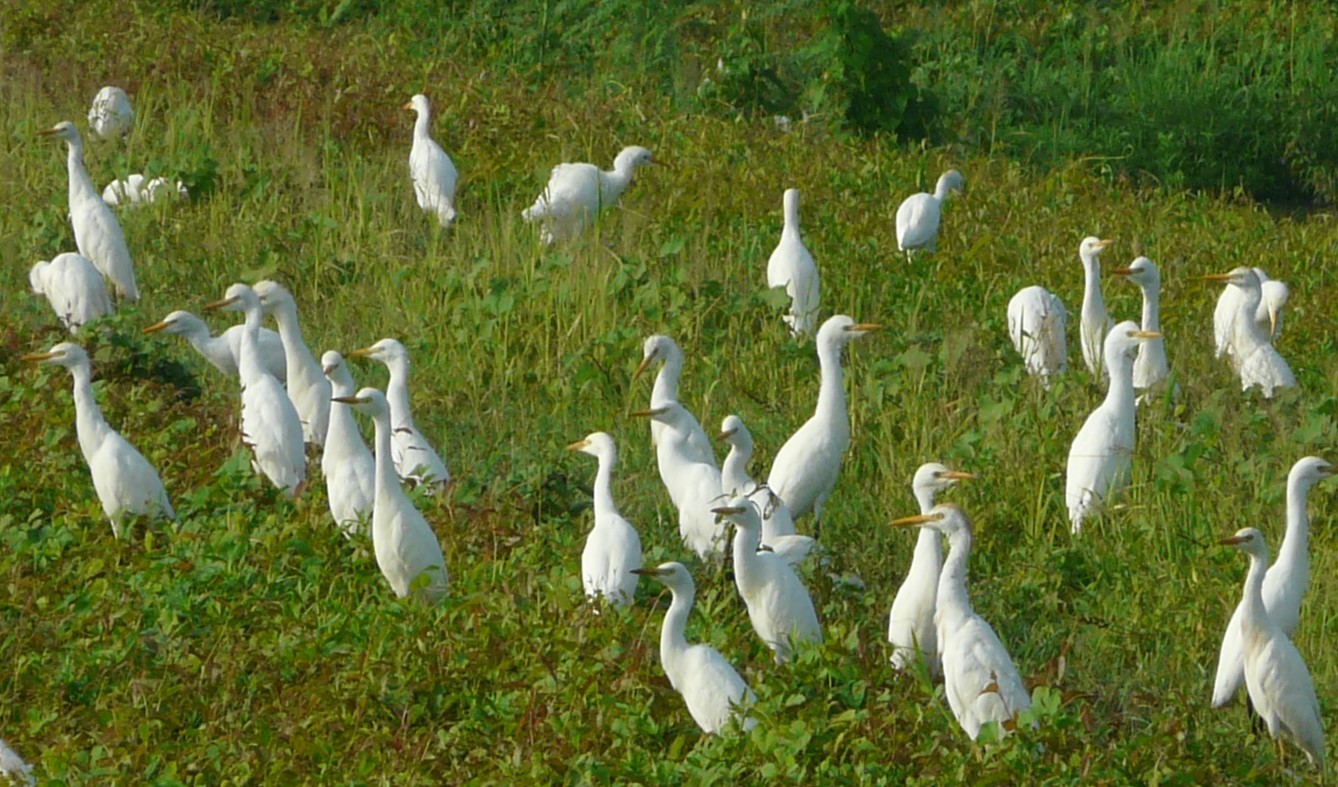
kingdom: Animalia
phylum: Chordata
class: Aves
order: Pelecaniformes
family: Ardeidae
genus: Bubulcus
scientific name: Bubulcus ibis
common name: Cattle egret
